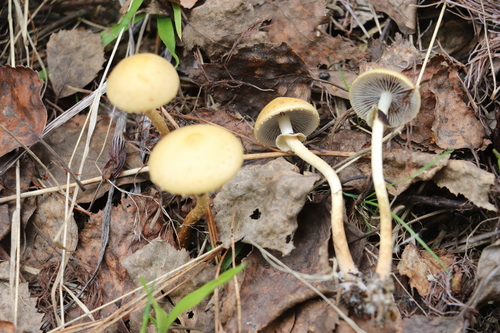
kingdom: Fungi
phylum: Basidiomycota
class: Agaricomycetes
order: Agaricales
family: Strophariaceae
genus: Leratiomyces
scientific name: Leratiomyces magnivelaris
